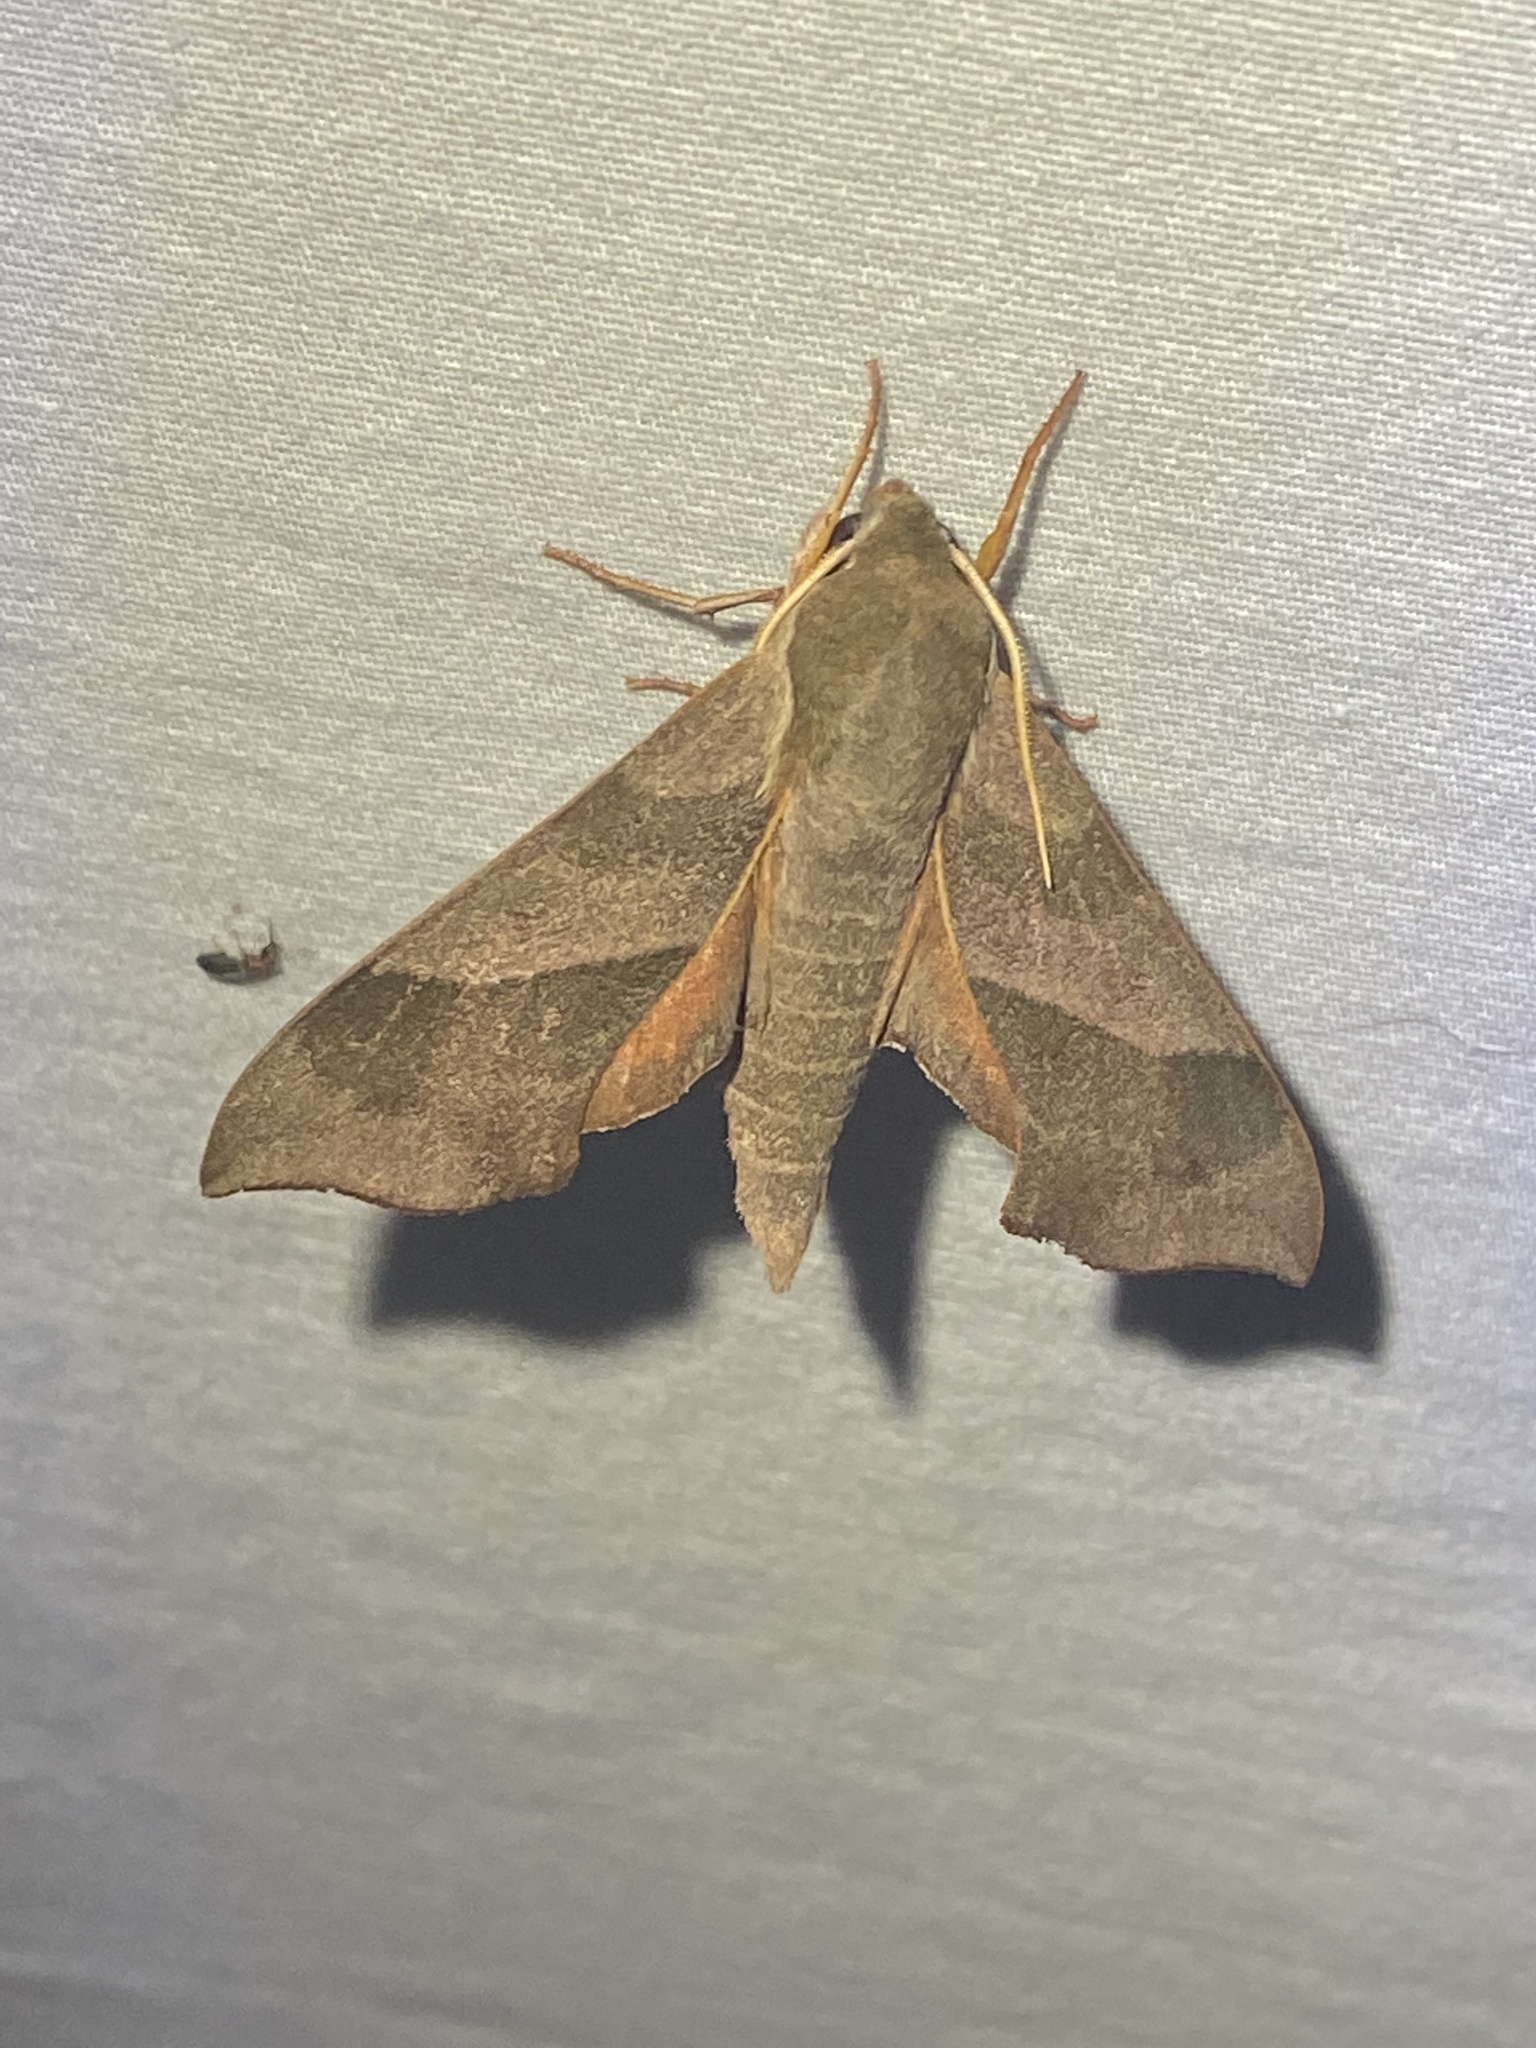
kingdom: Animalia
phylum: Arthropoda
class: Insecta
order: Lepidoptera
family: Sphingidae
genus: Darapsa
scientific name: Darapsa myron
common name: Hog sphinx
